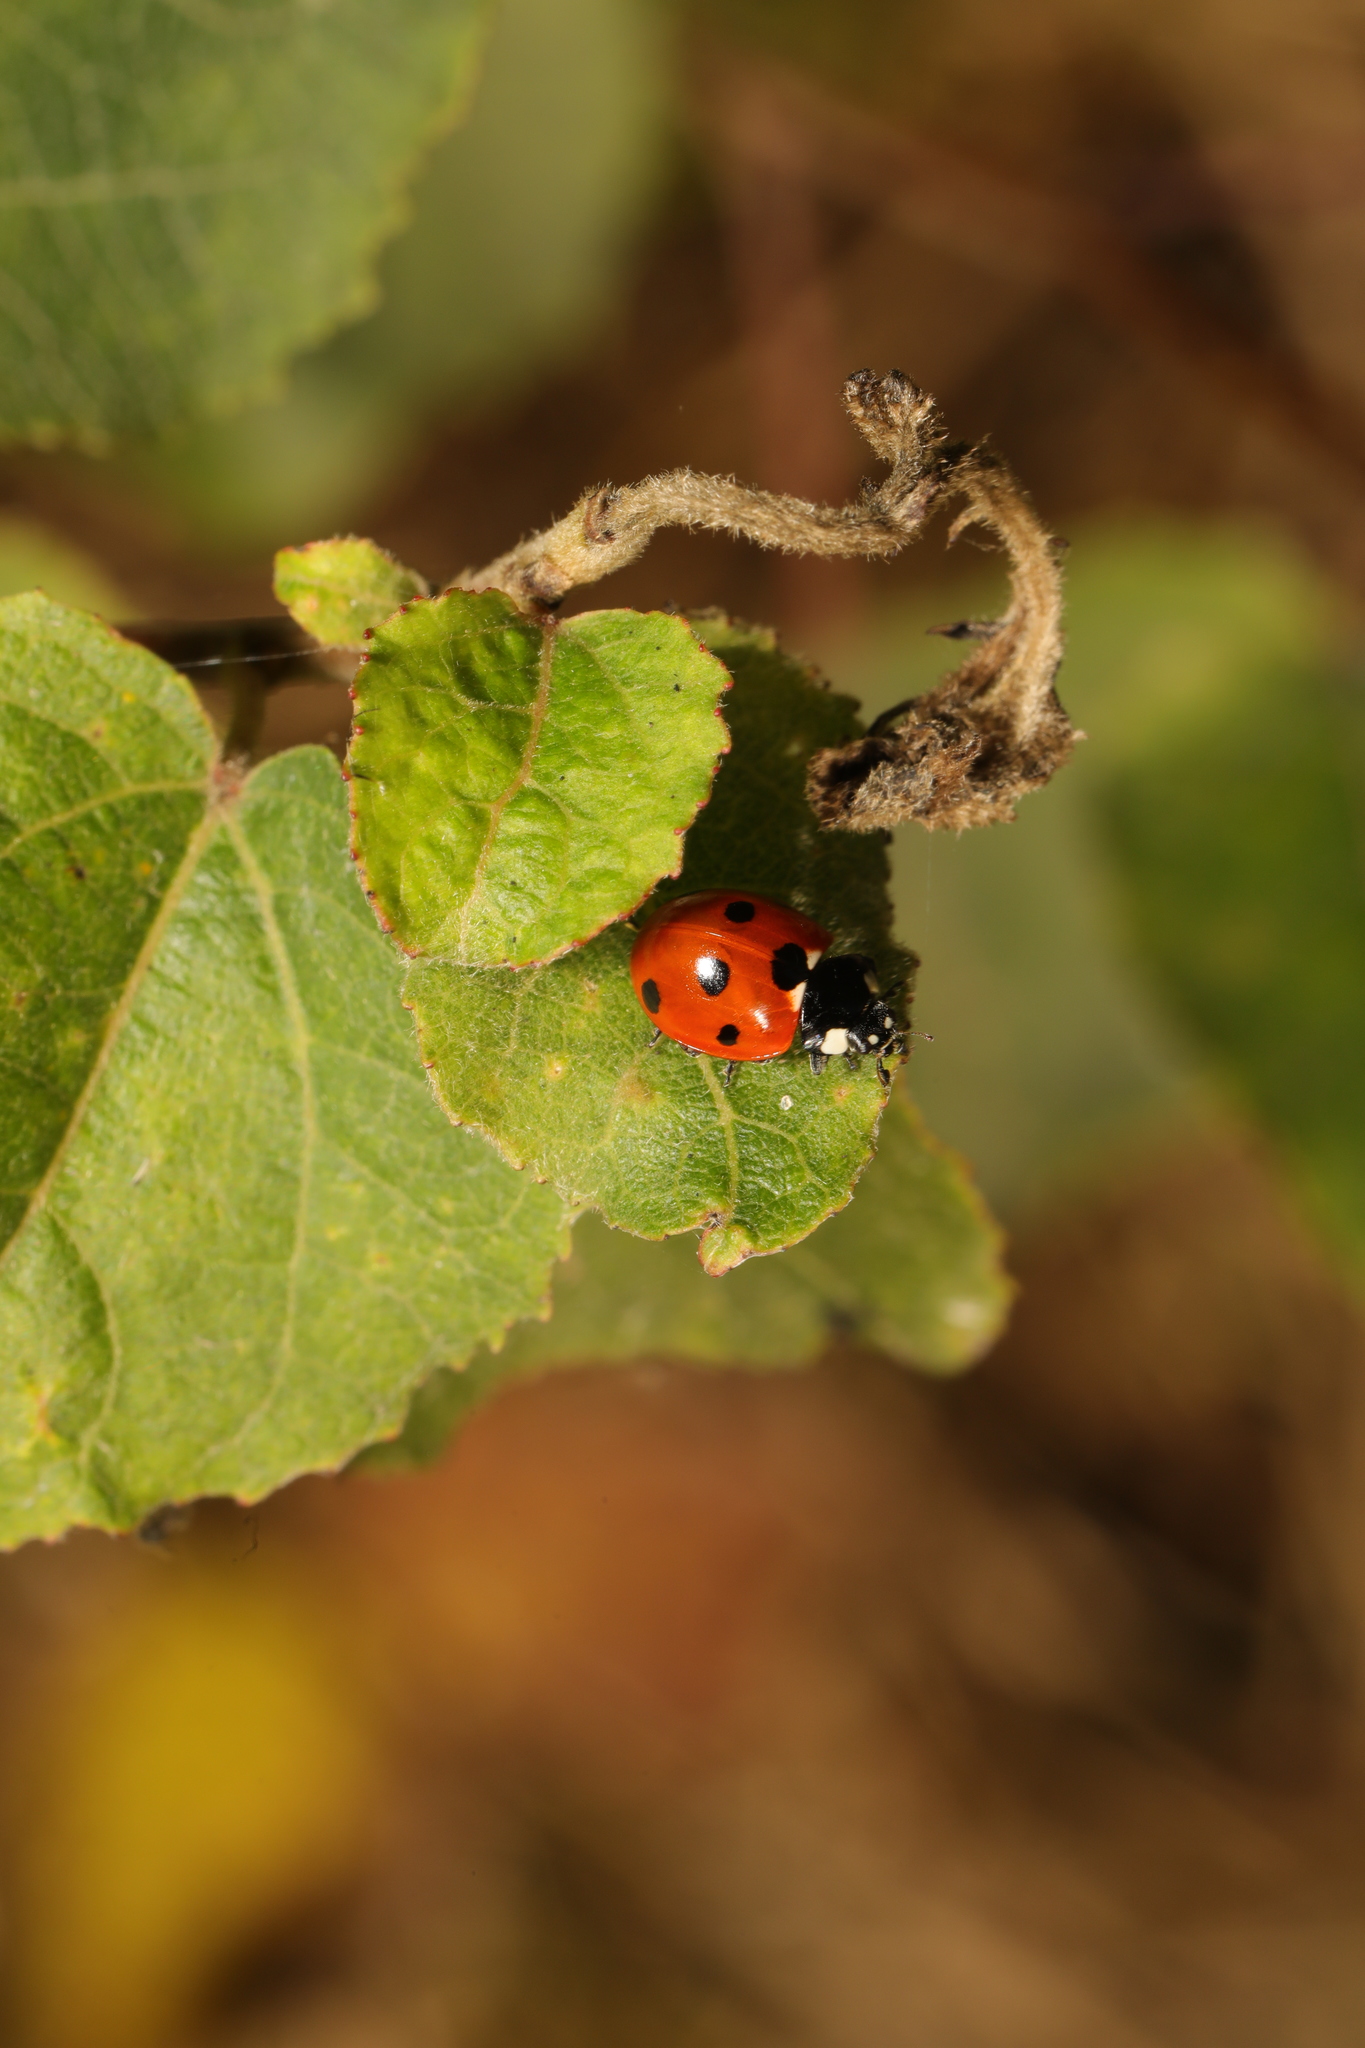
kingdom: Animalia
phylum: Arthropoda
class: Insecta
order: Coleoptera
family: Coccinellidae
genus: Coccinella
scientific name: Coccinella septempunctata
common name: Sevenspotted lady beetle
